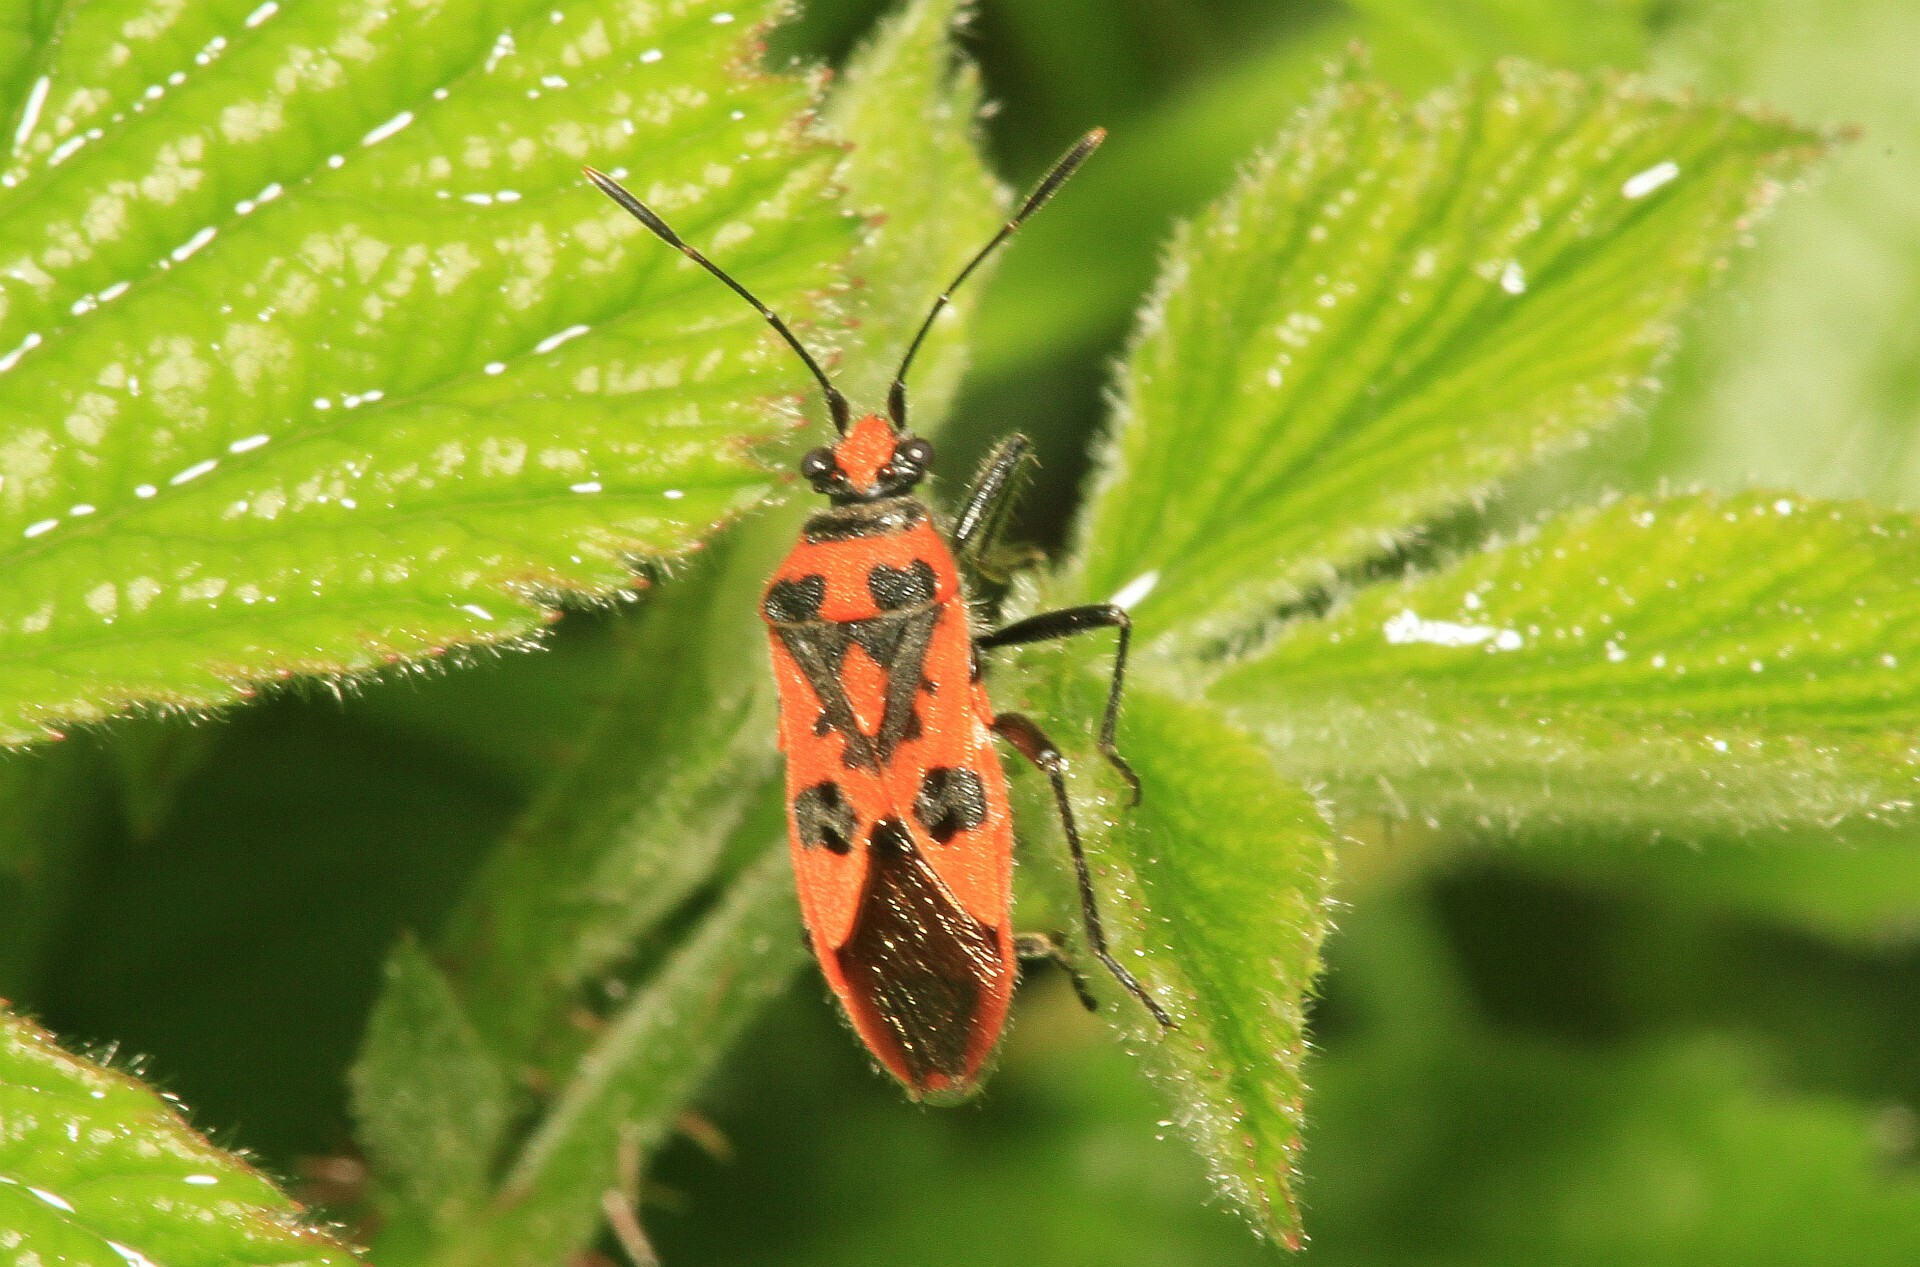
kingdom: Animalia
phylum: Arthropoda
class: Insecta
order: Hemiptera
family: Rhopalidae
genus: Corizus
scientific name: Corizus hyoscyami
